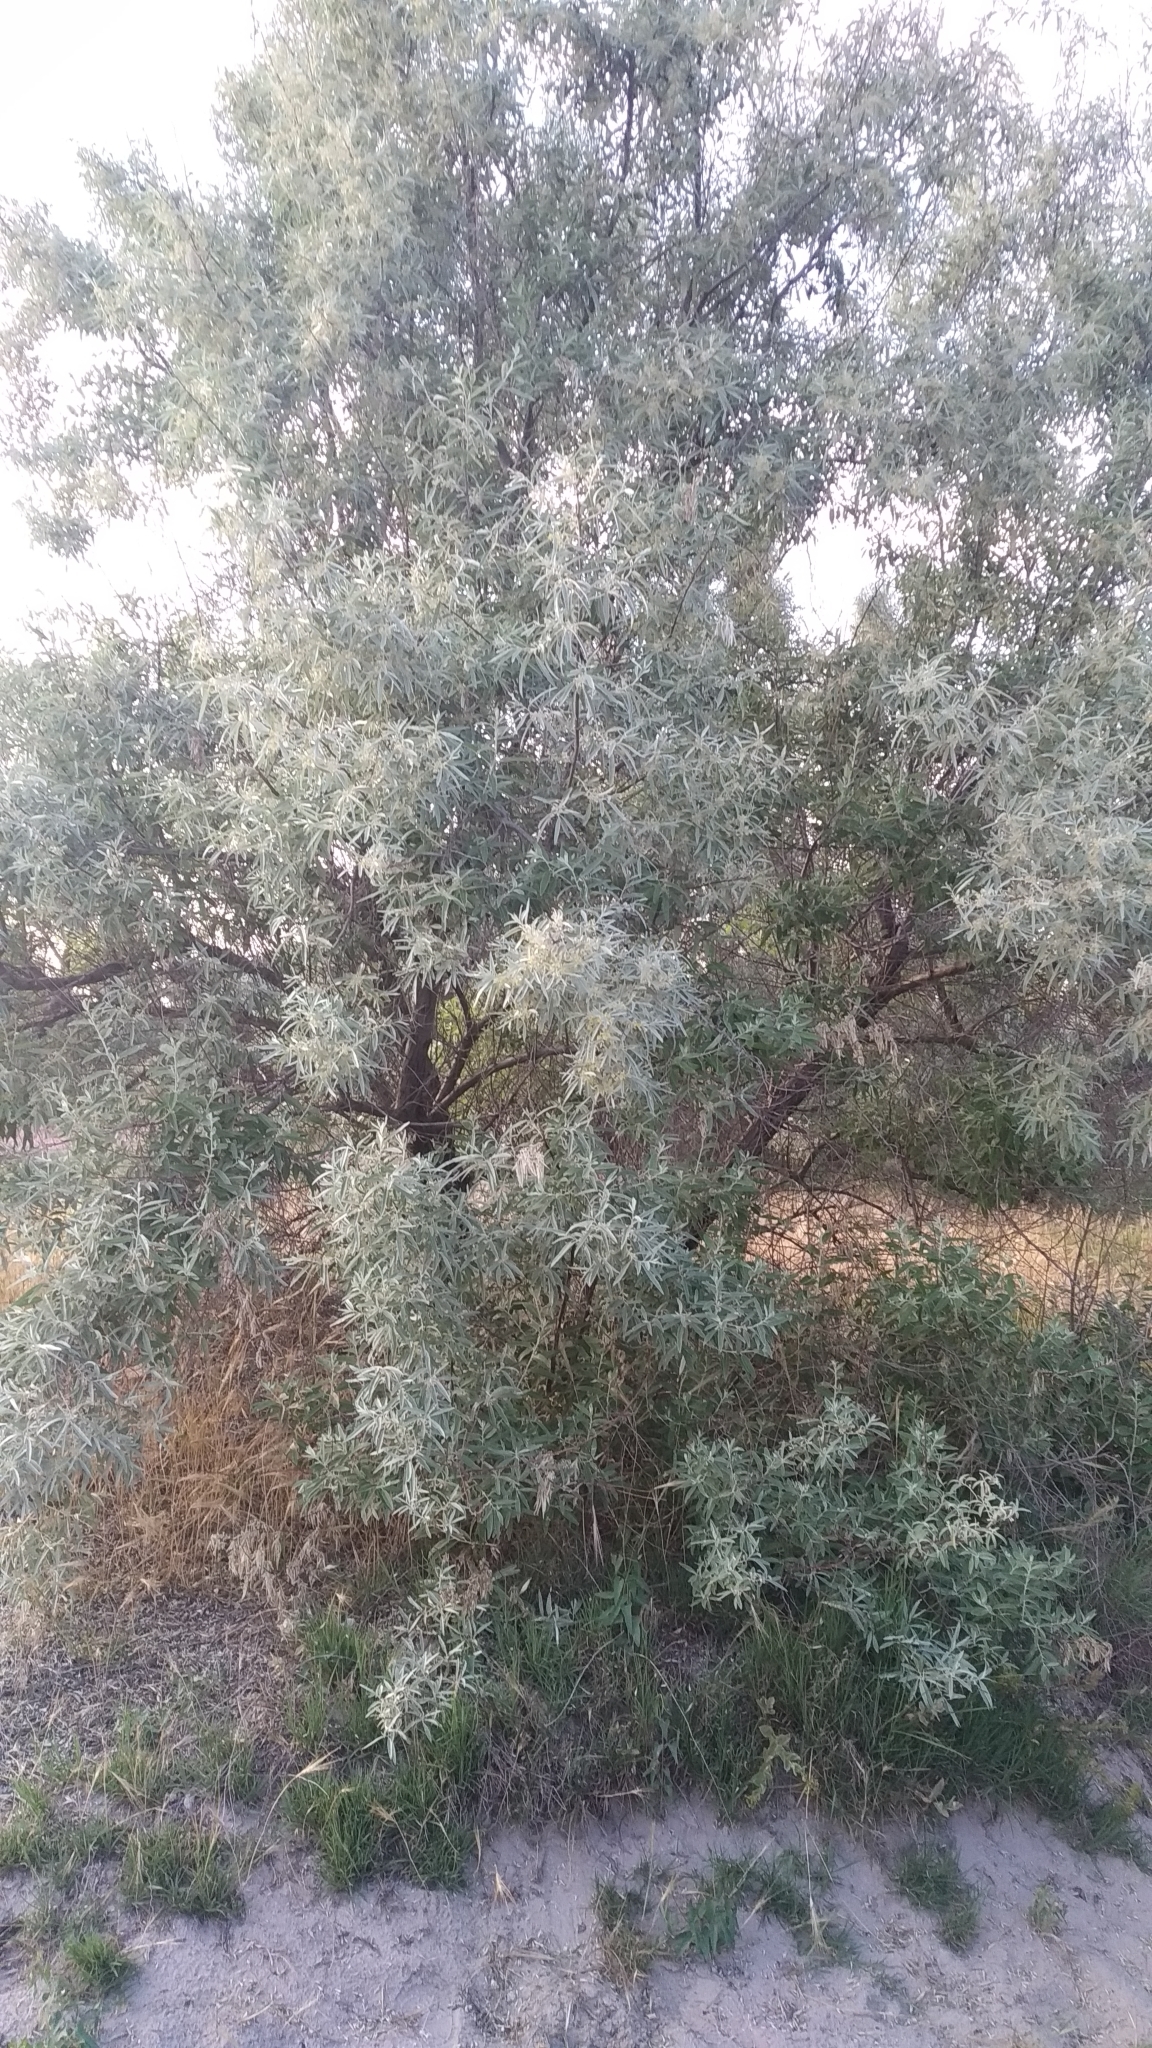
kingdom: Plantae
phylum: Tracheophyta
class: Magnoliopsida
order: Rosales
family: Elaeagnaceae
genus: Elaeagnus
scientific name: Elaeagnus angustifolia
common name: Russian olive
